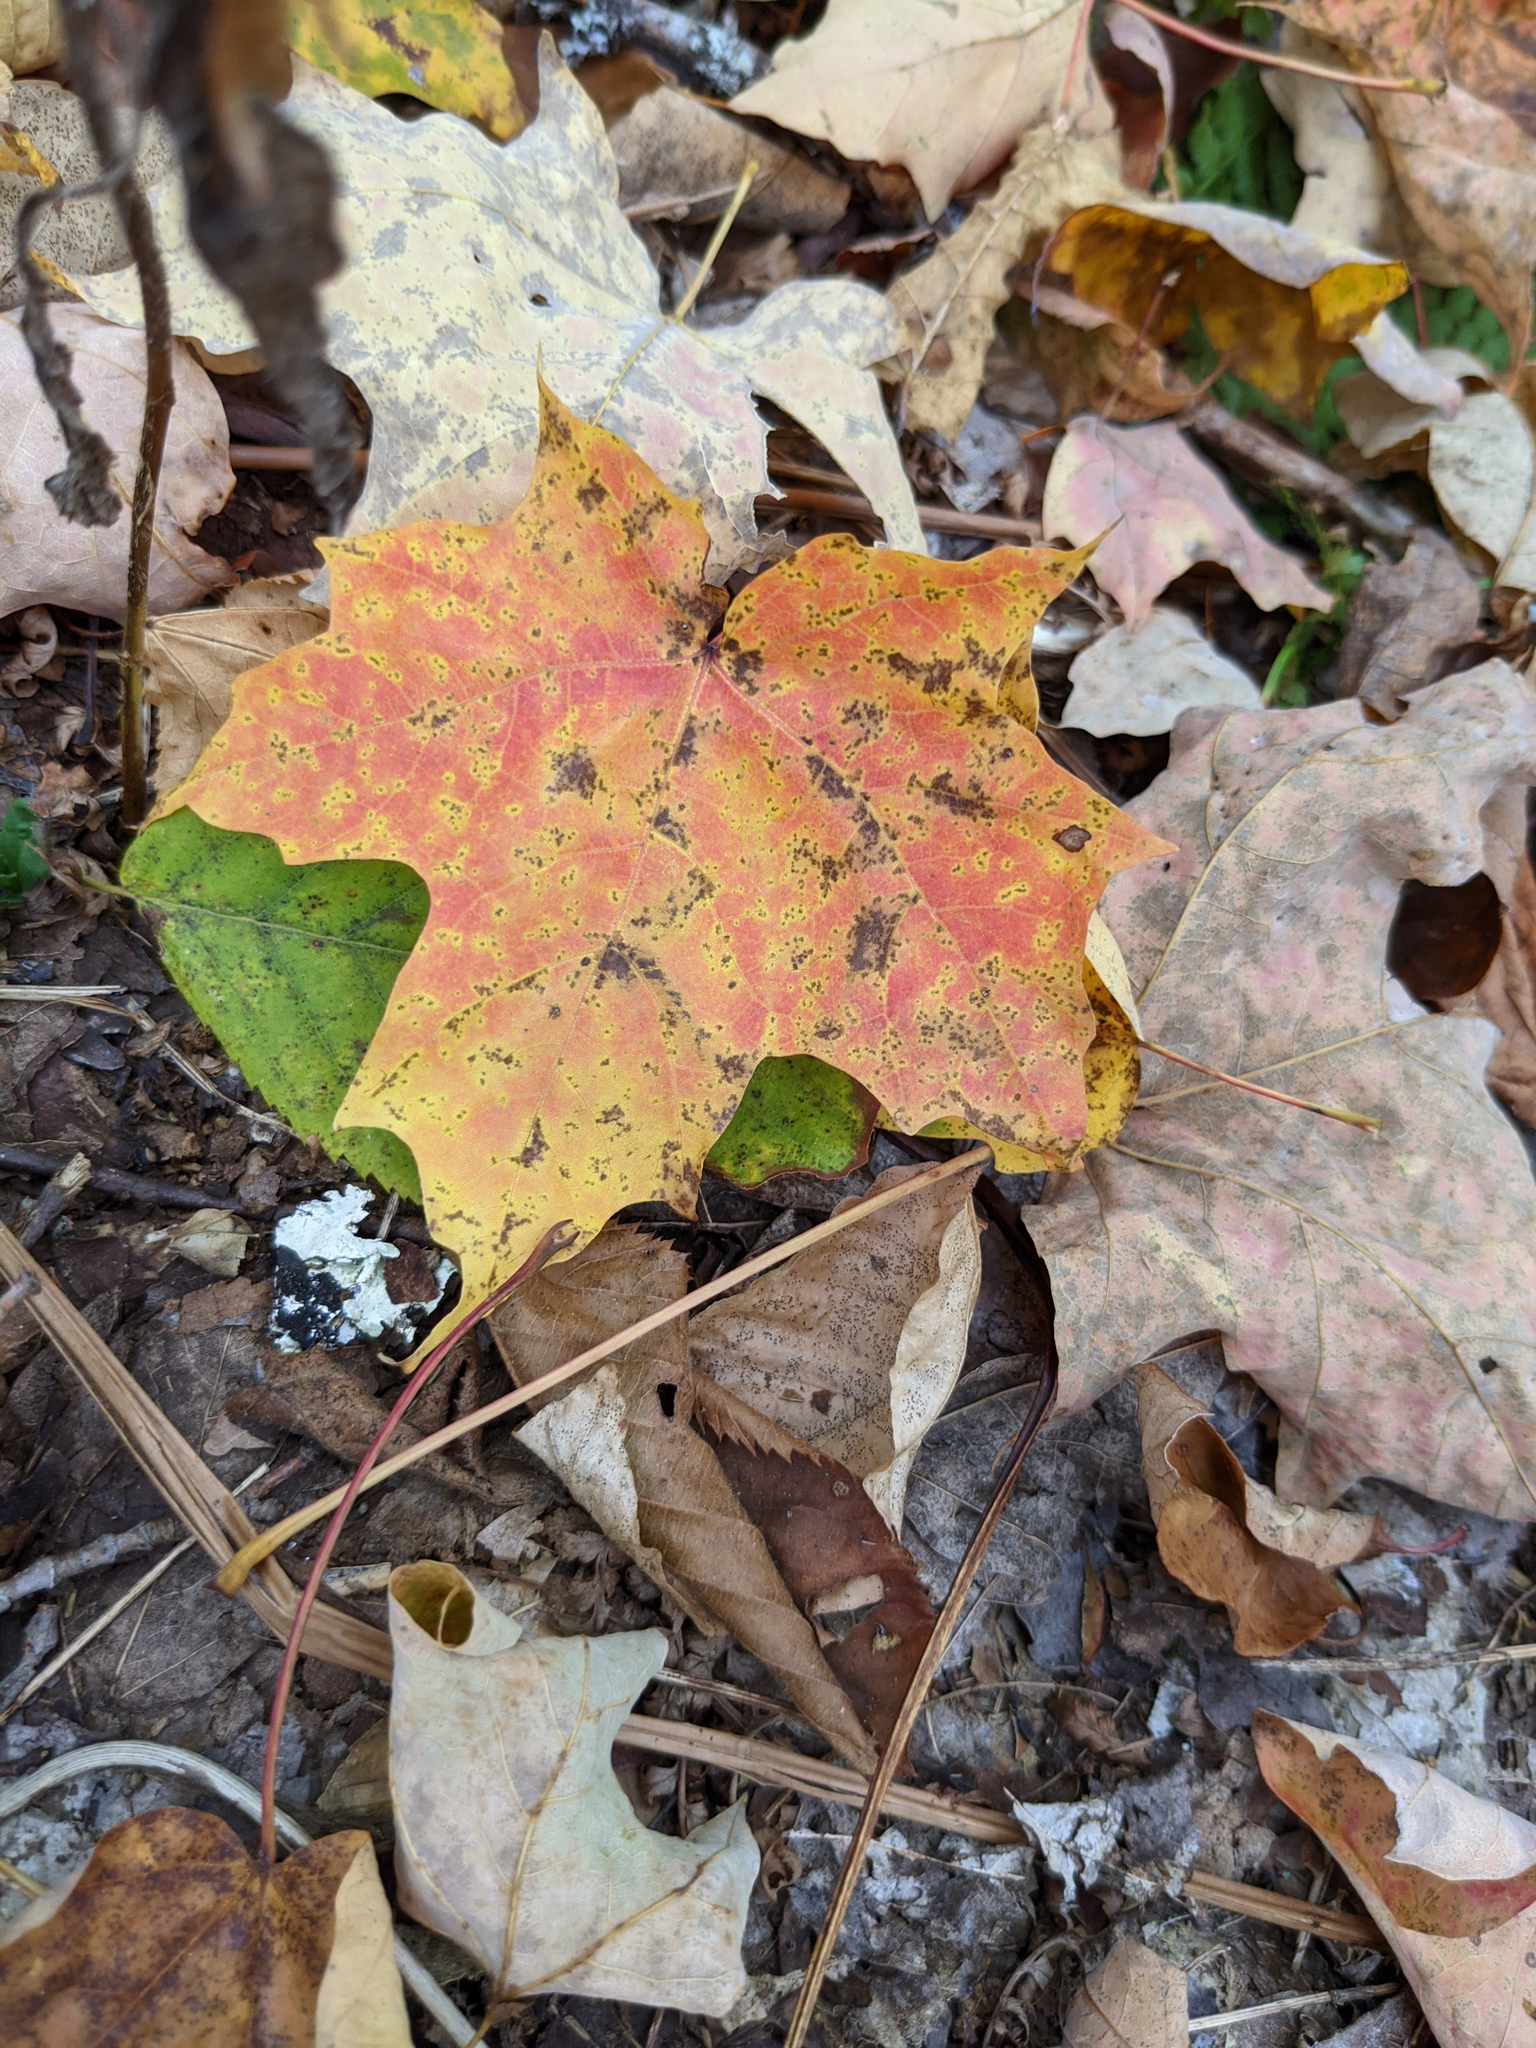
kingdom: Plantae
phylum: Tracheophyta
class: Magnoliopsida
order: Sapindales
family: Sapindaceae
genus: Acer
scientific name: Acer saccharum
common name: Sugar maple
